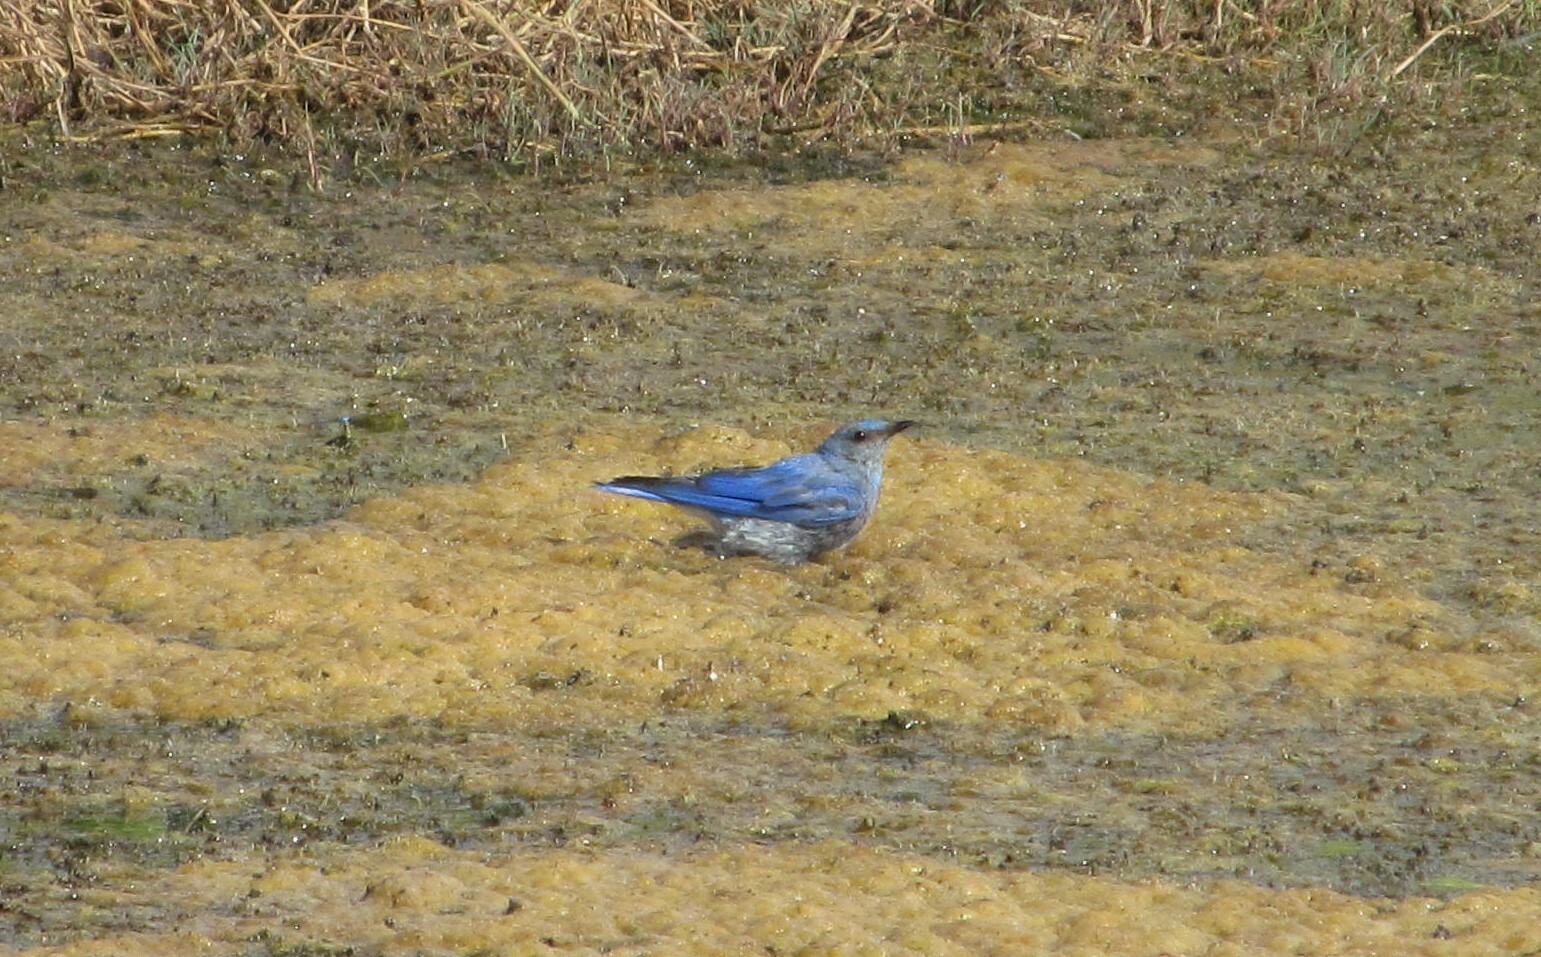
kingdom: Animalia
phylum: Chordata
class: Aves
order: Passeriformes
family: Turdidae
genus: Sialia
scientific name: Sialia currucoides
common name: Mountain bluebird
